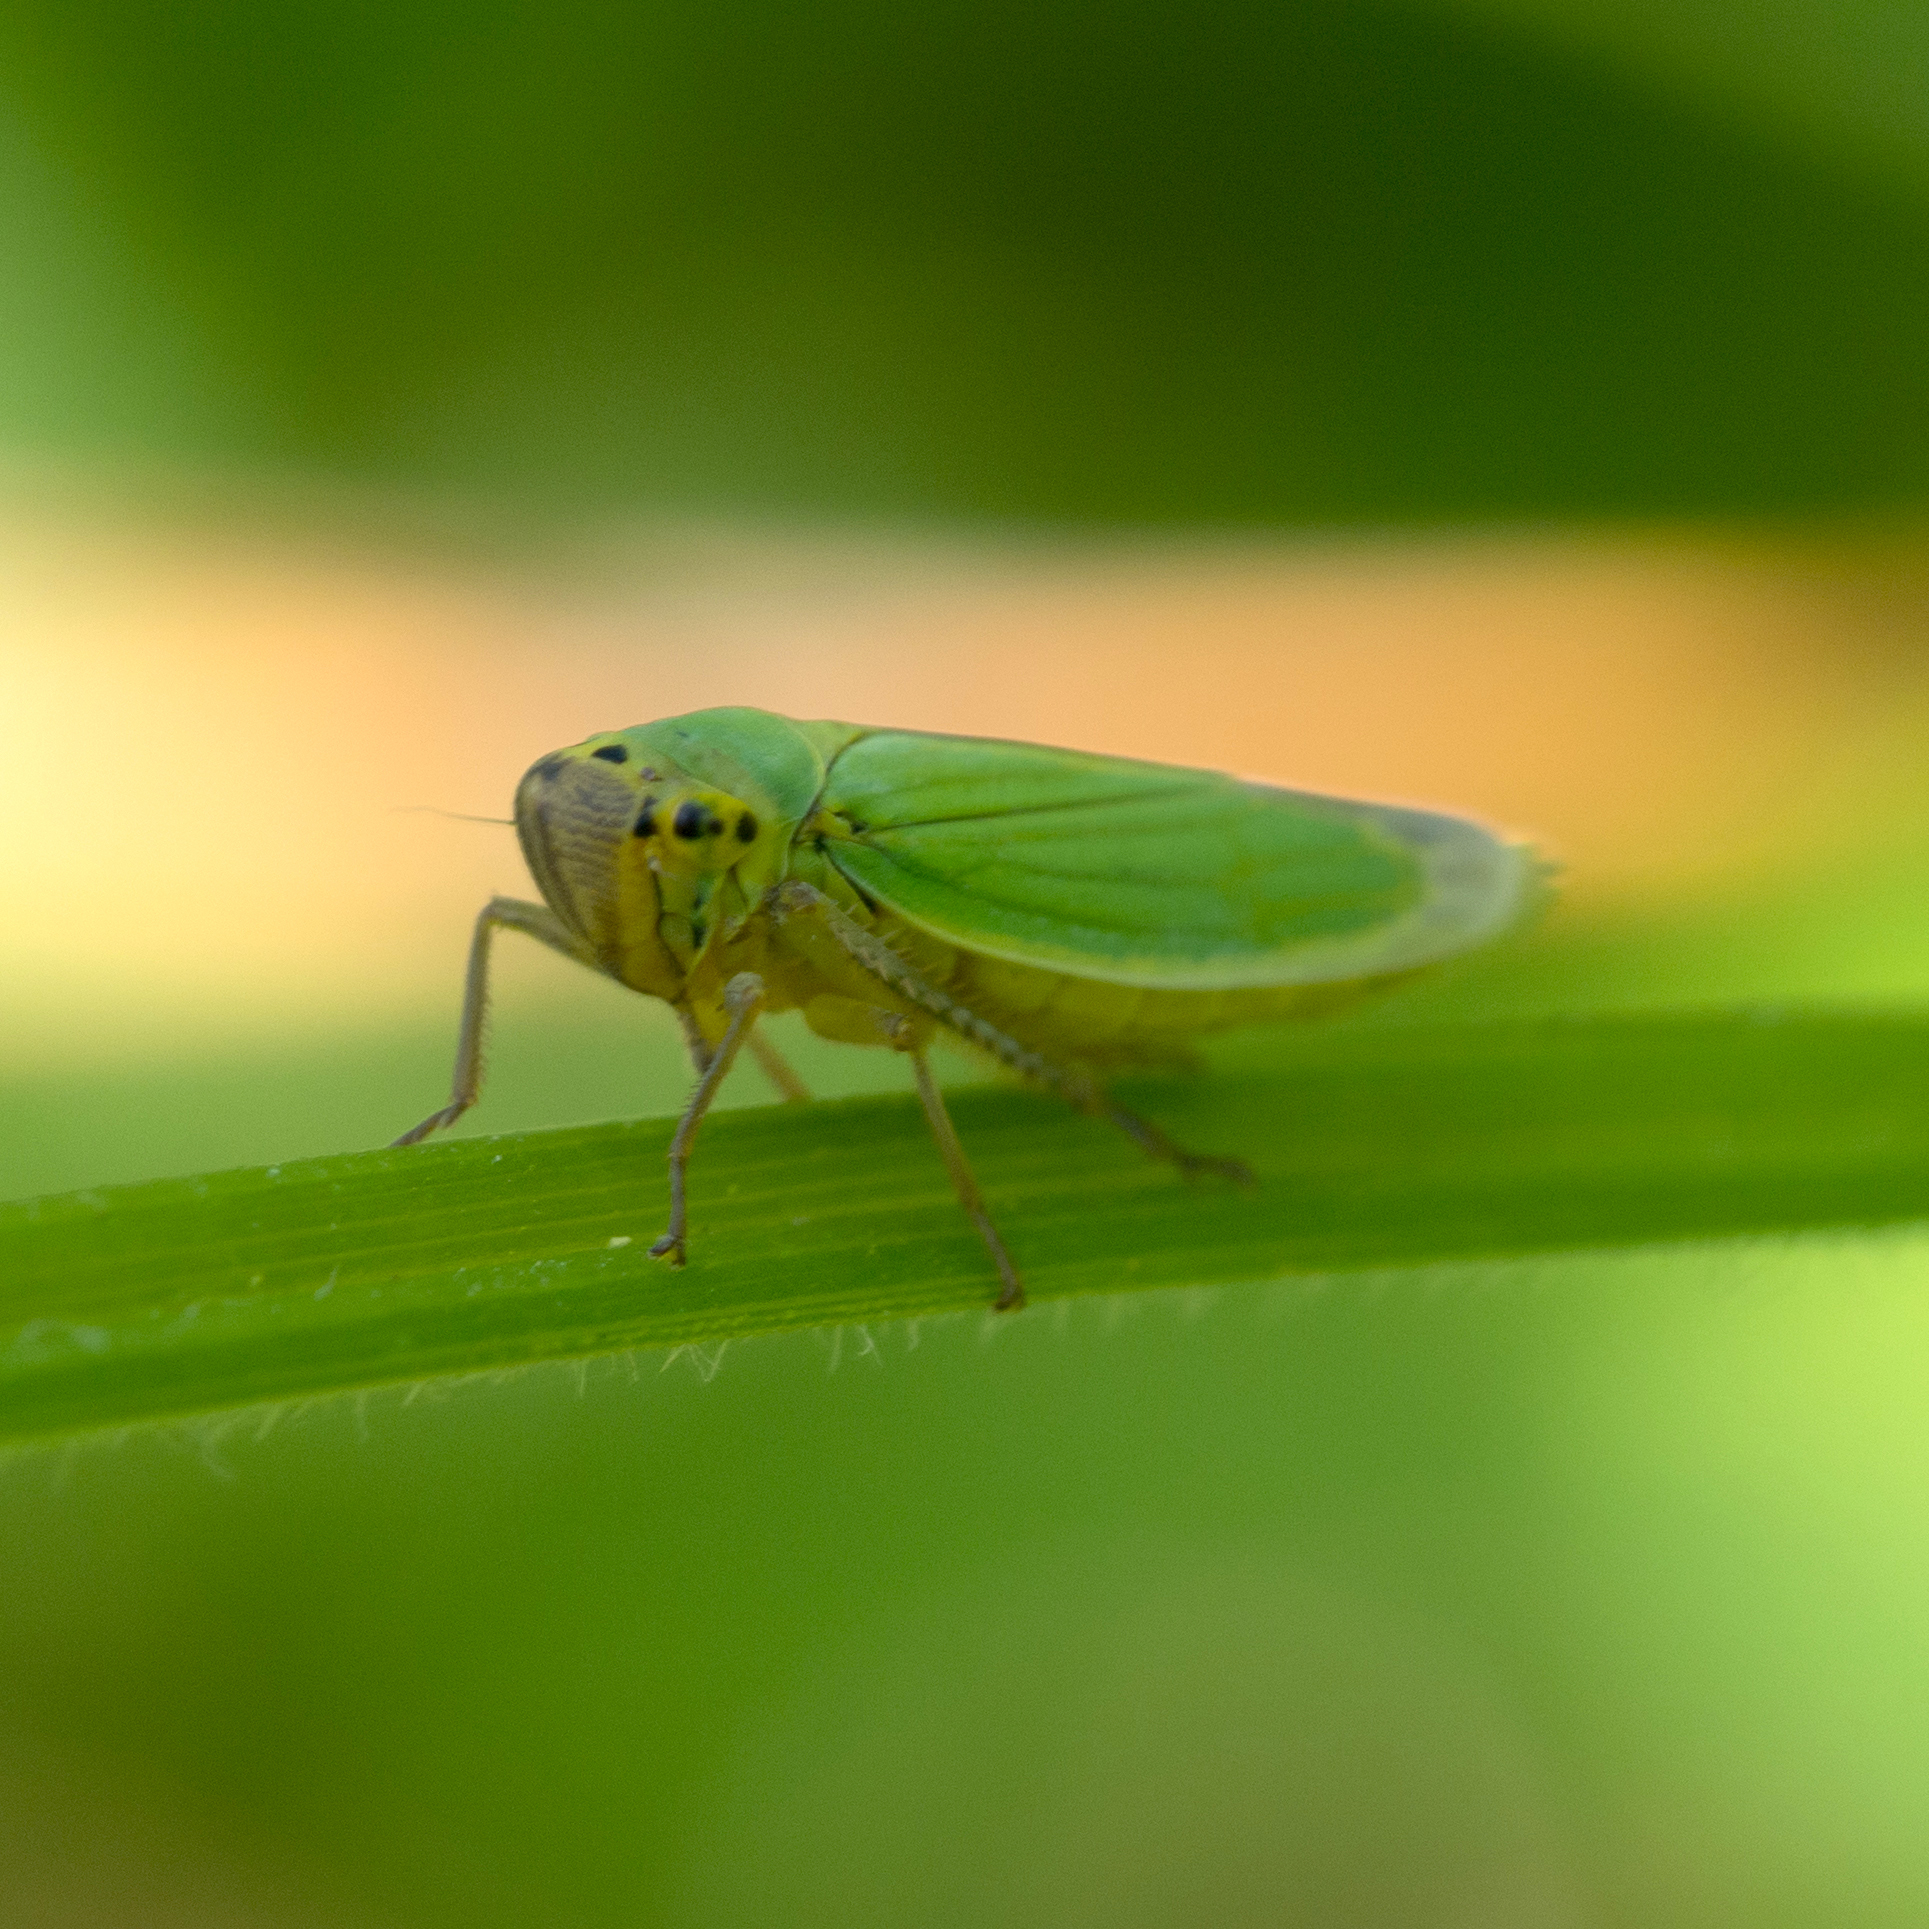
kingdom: Animalia
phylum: Arthropoda
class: Insecta
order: Hemiptera
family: Cicadellidae
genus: Cicadella
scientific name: Cicadella viridis
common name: Leafhopper
